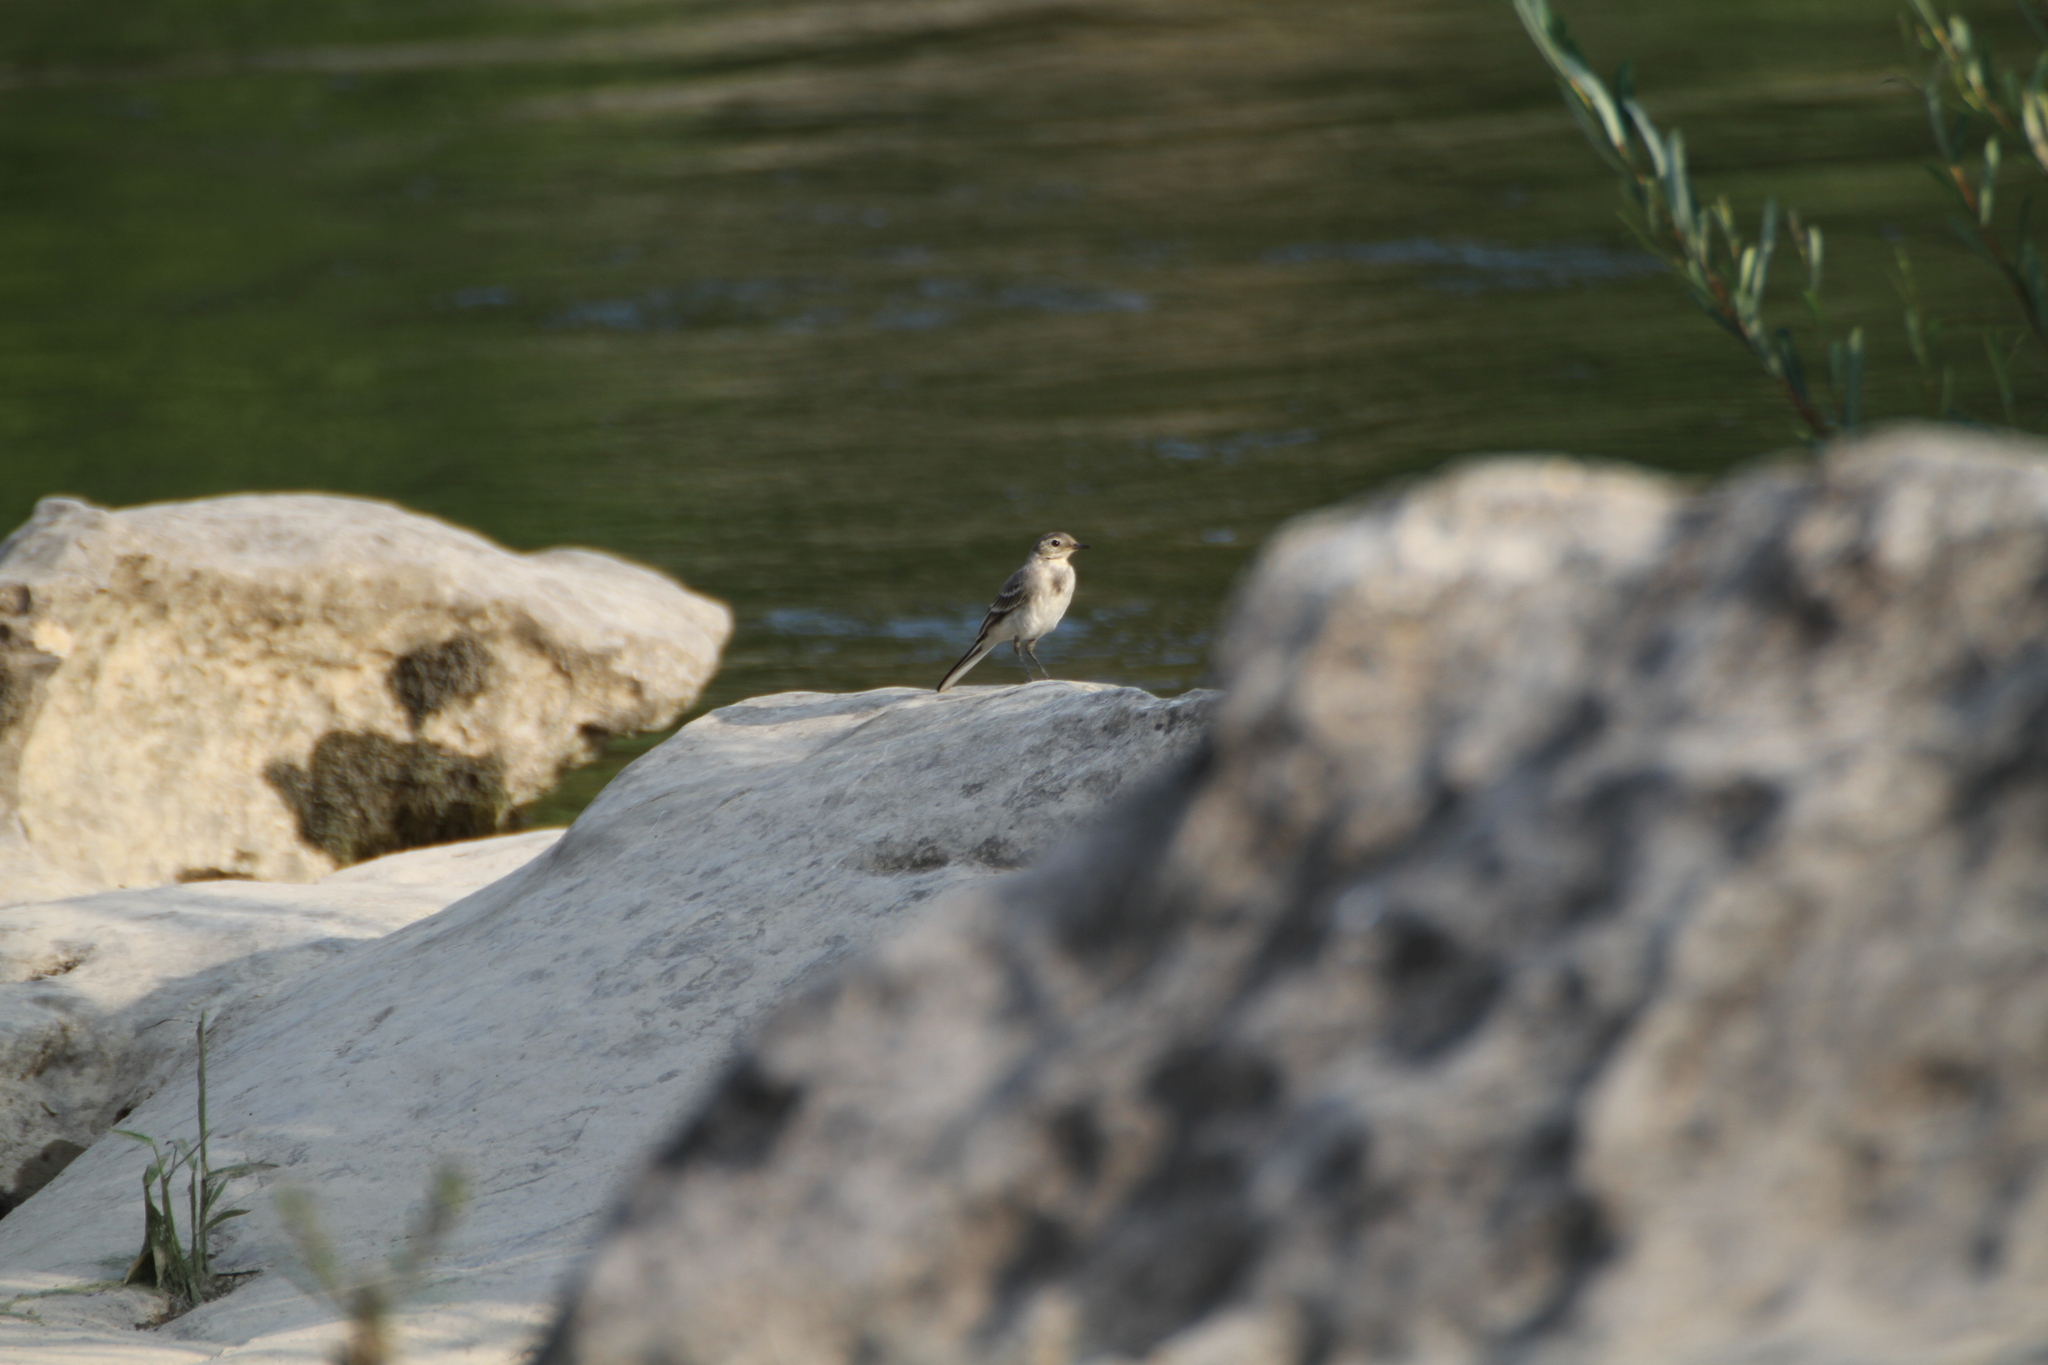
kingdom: Animalia
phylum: Chordata
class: Aves
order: Passeriformes
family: Motacillidae
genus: Motacilla
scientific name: Motacilla alba
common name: White wagtail
